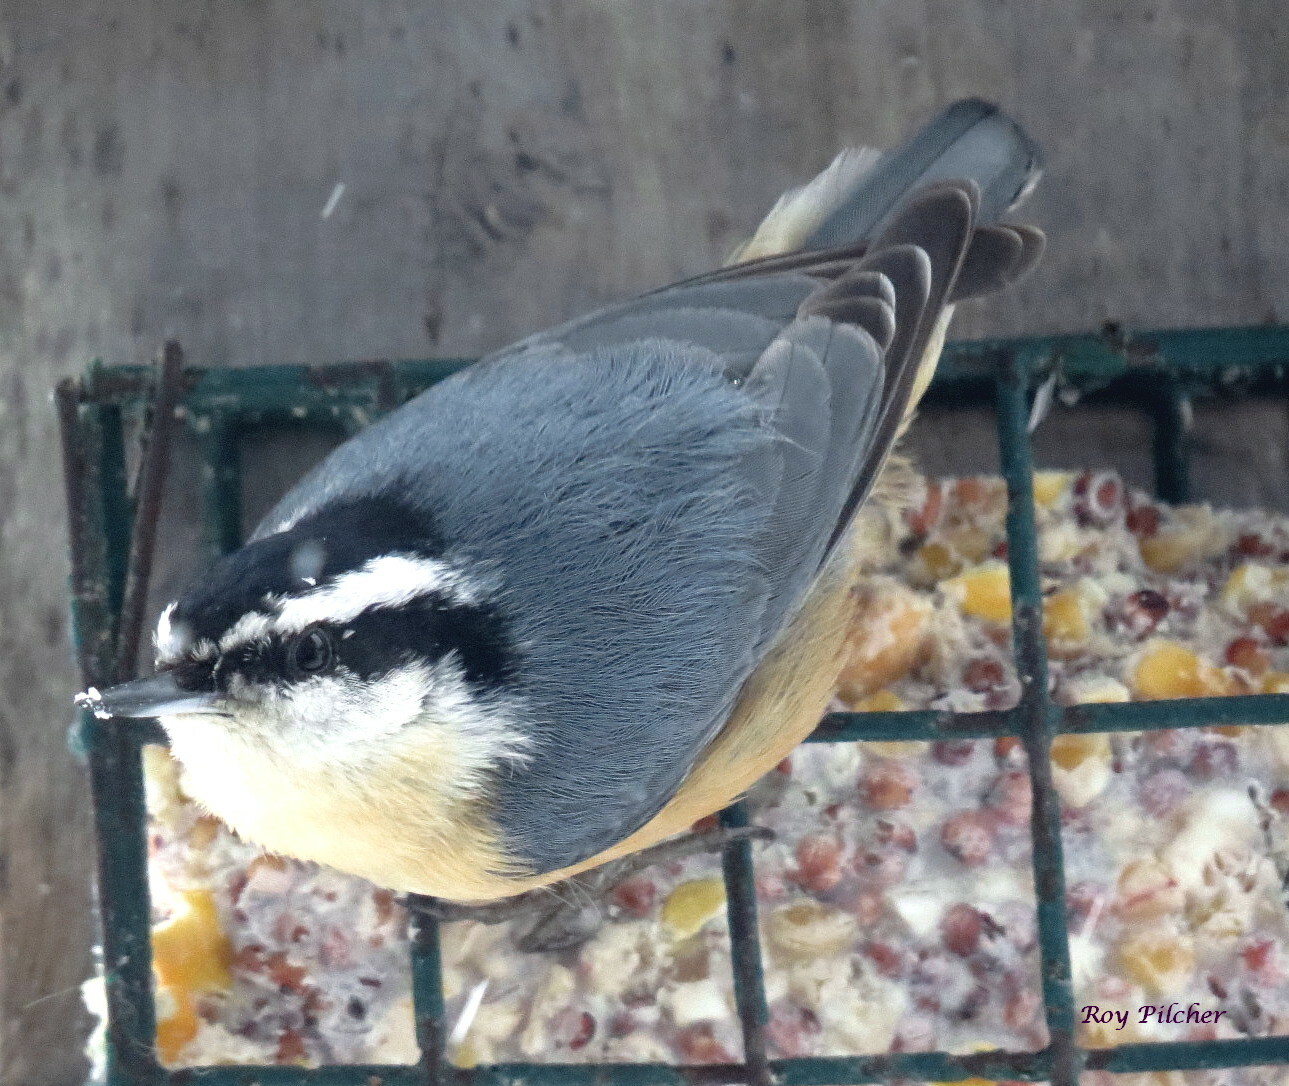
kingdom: Animalia
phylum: Chordata
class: Aves
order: Passeriformes
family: Sittidae
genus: Sitta
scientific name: Sitta canadensis
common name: Red-breasted nuthatch
